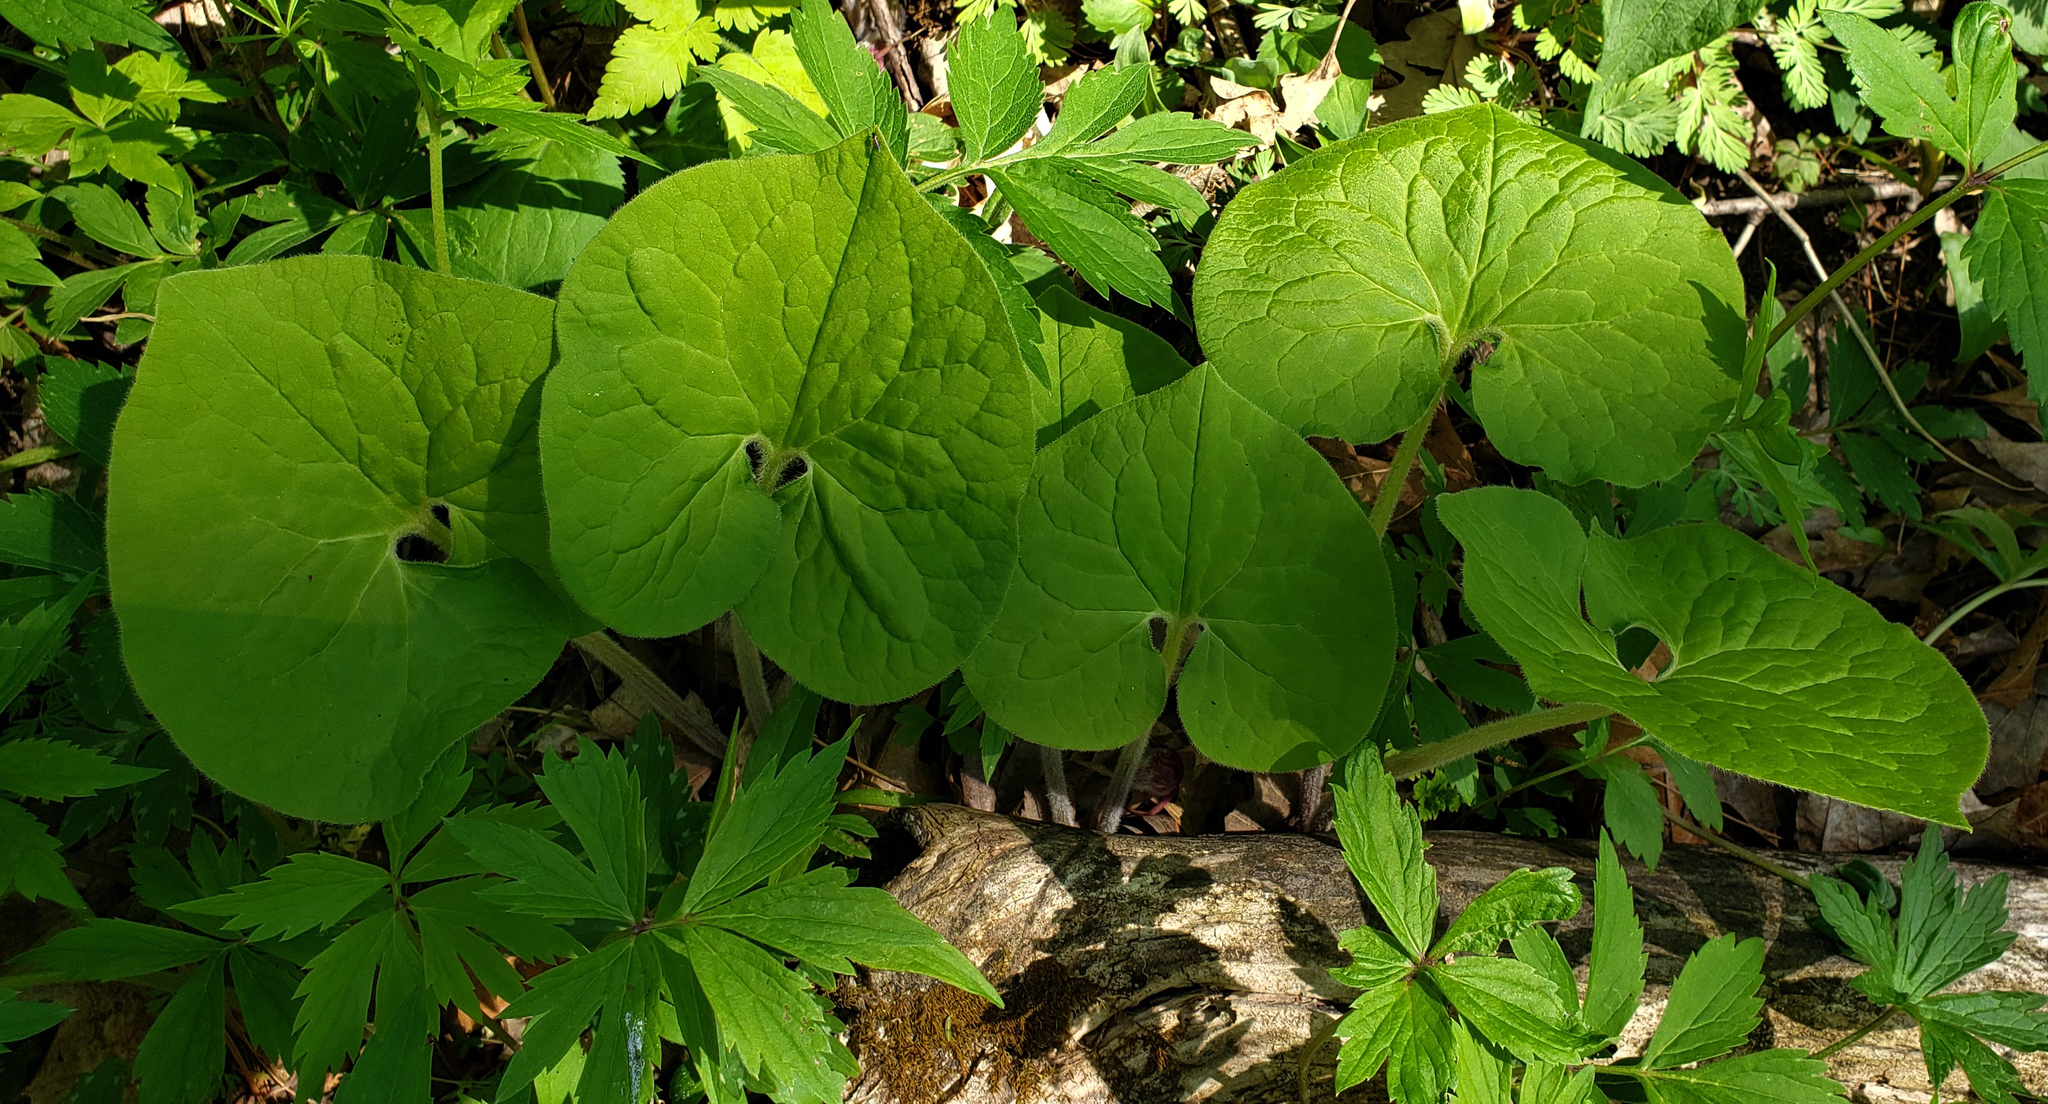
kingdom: Plantae
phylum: Tracheophyta
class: Magnoliopsida
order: Piperales
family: Aristolochiaceae
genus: Asarum
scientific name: Asarum canadense
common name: Wild ginger
